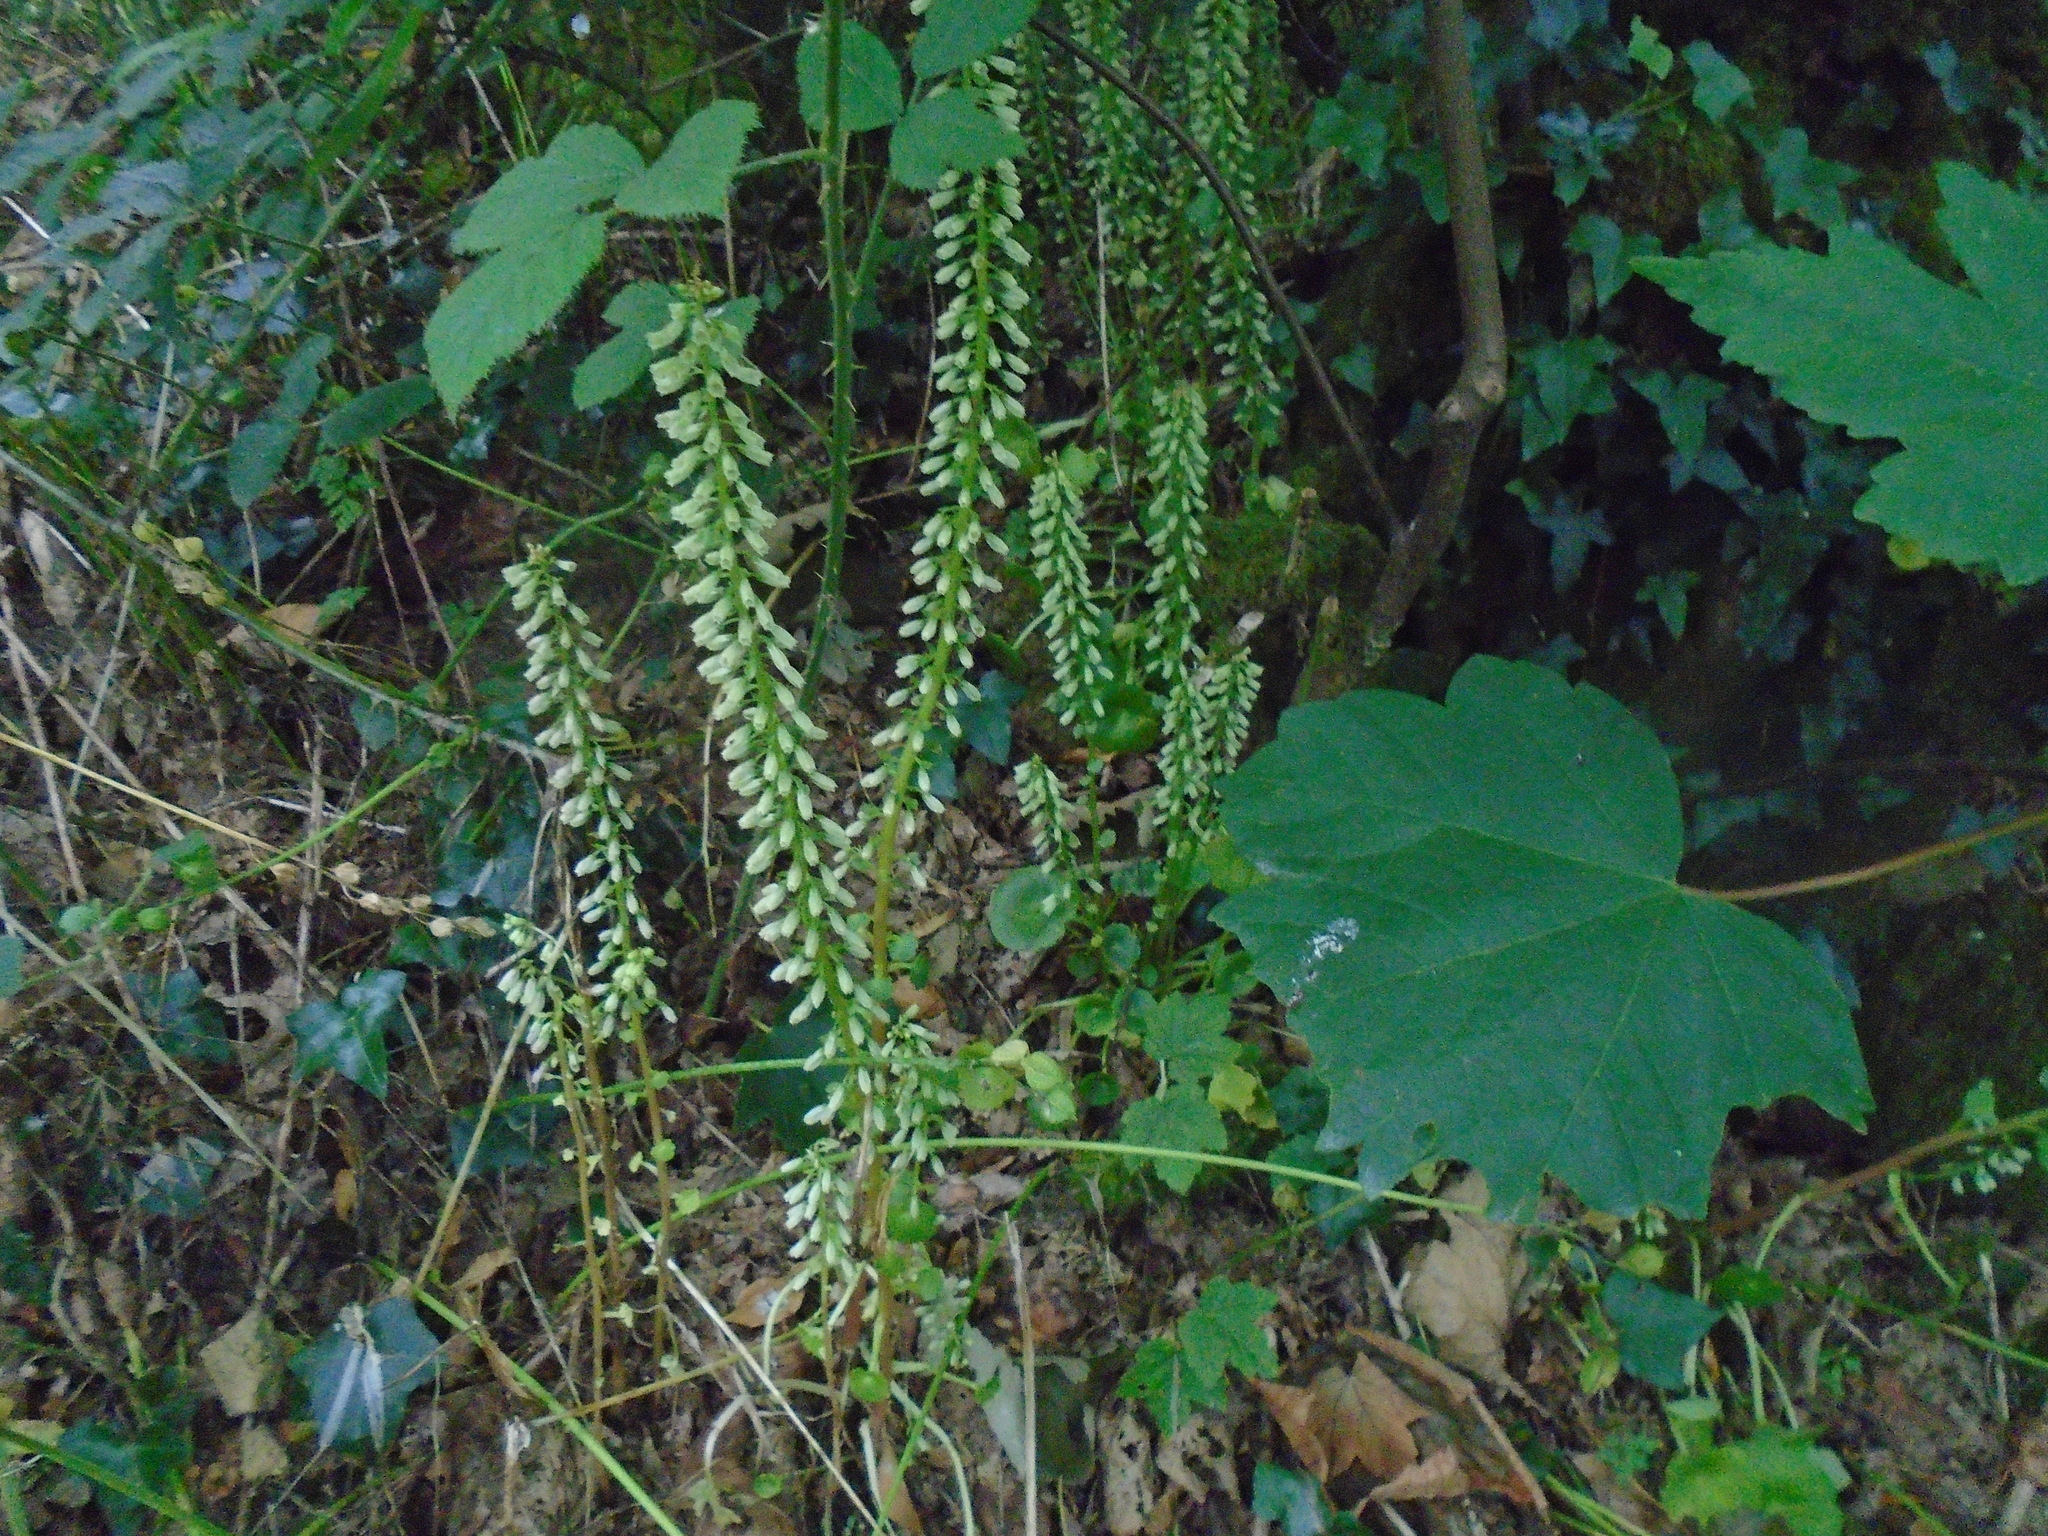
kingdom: Plantae
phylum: Tracheophyta
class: Magnoliopsida
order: Saxifragales
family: Crassulaceae
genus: Umbilicus
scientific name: Umbilicus rupestris
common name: Navelwort
